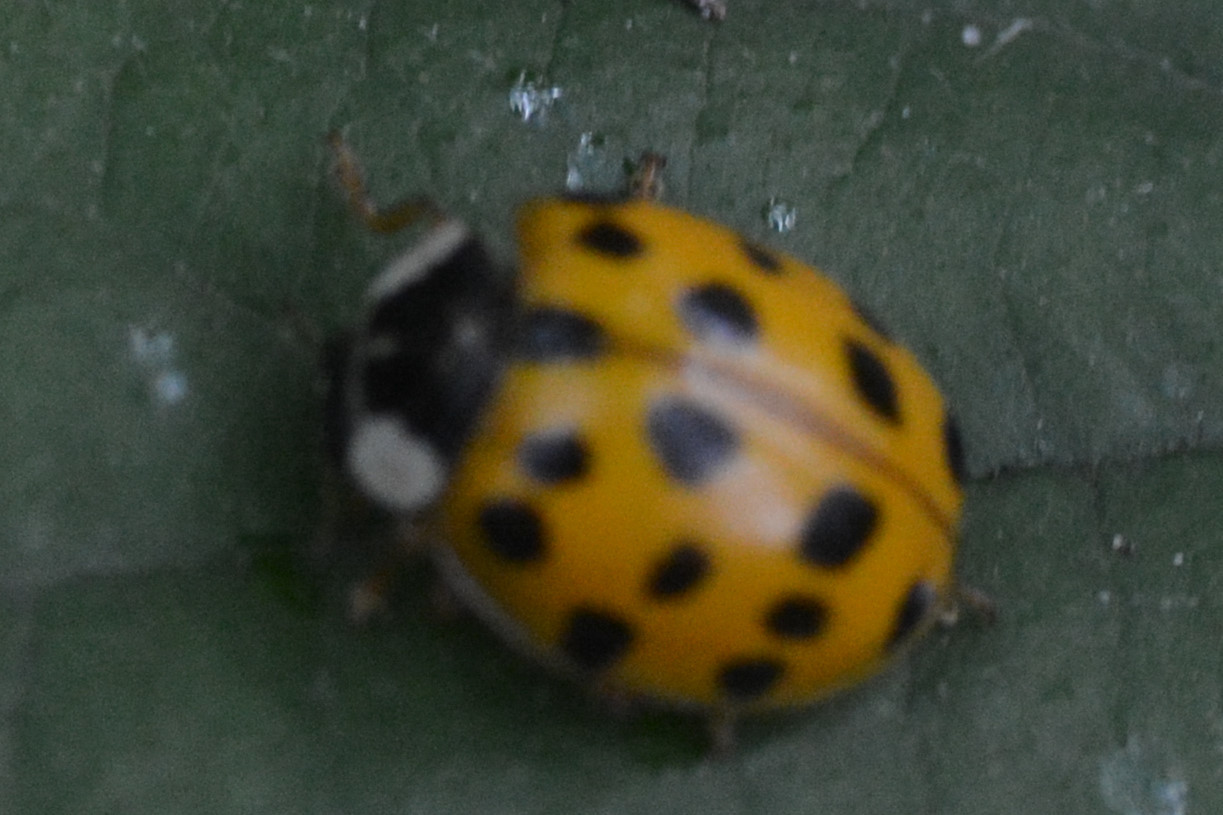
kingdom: Animalia
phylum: Arthropoda
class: Insecta
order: Coleoptera
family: Coccinellidae
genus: Harmonia
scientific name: Harmonia axyridis
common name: Harlequin ladybird
